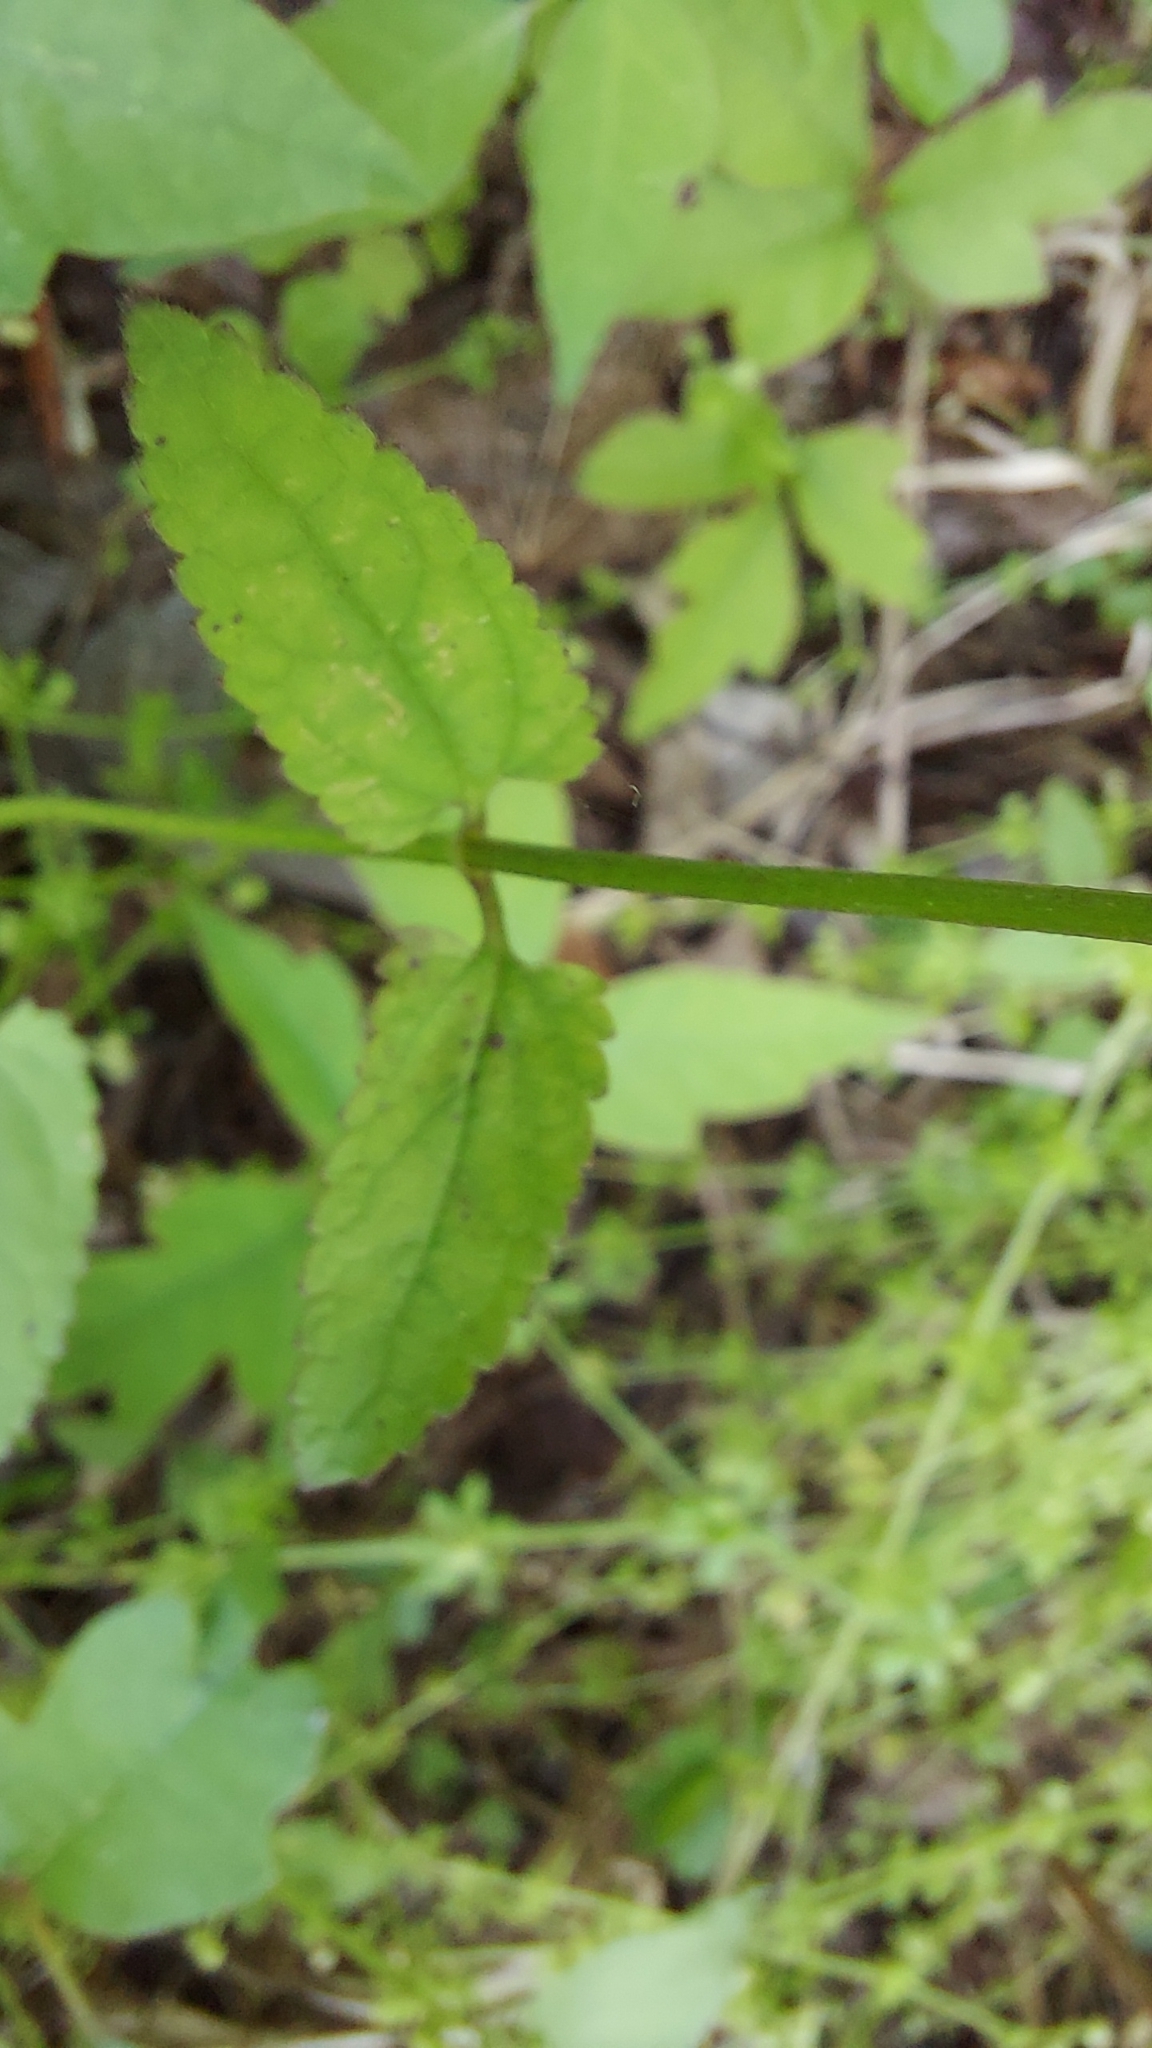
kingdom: Plantae
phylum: Tracheophyta
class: Magnoliopsida
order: Lamiales
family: Lamiaceae
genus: Stachys
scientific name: Stachys floridana
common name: Florida betony
